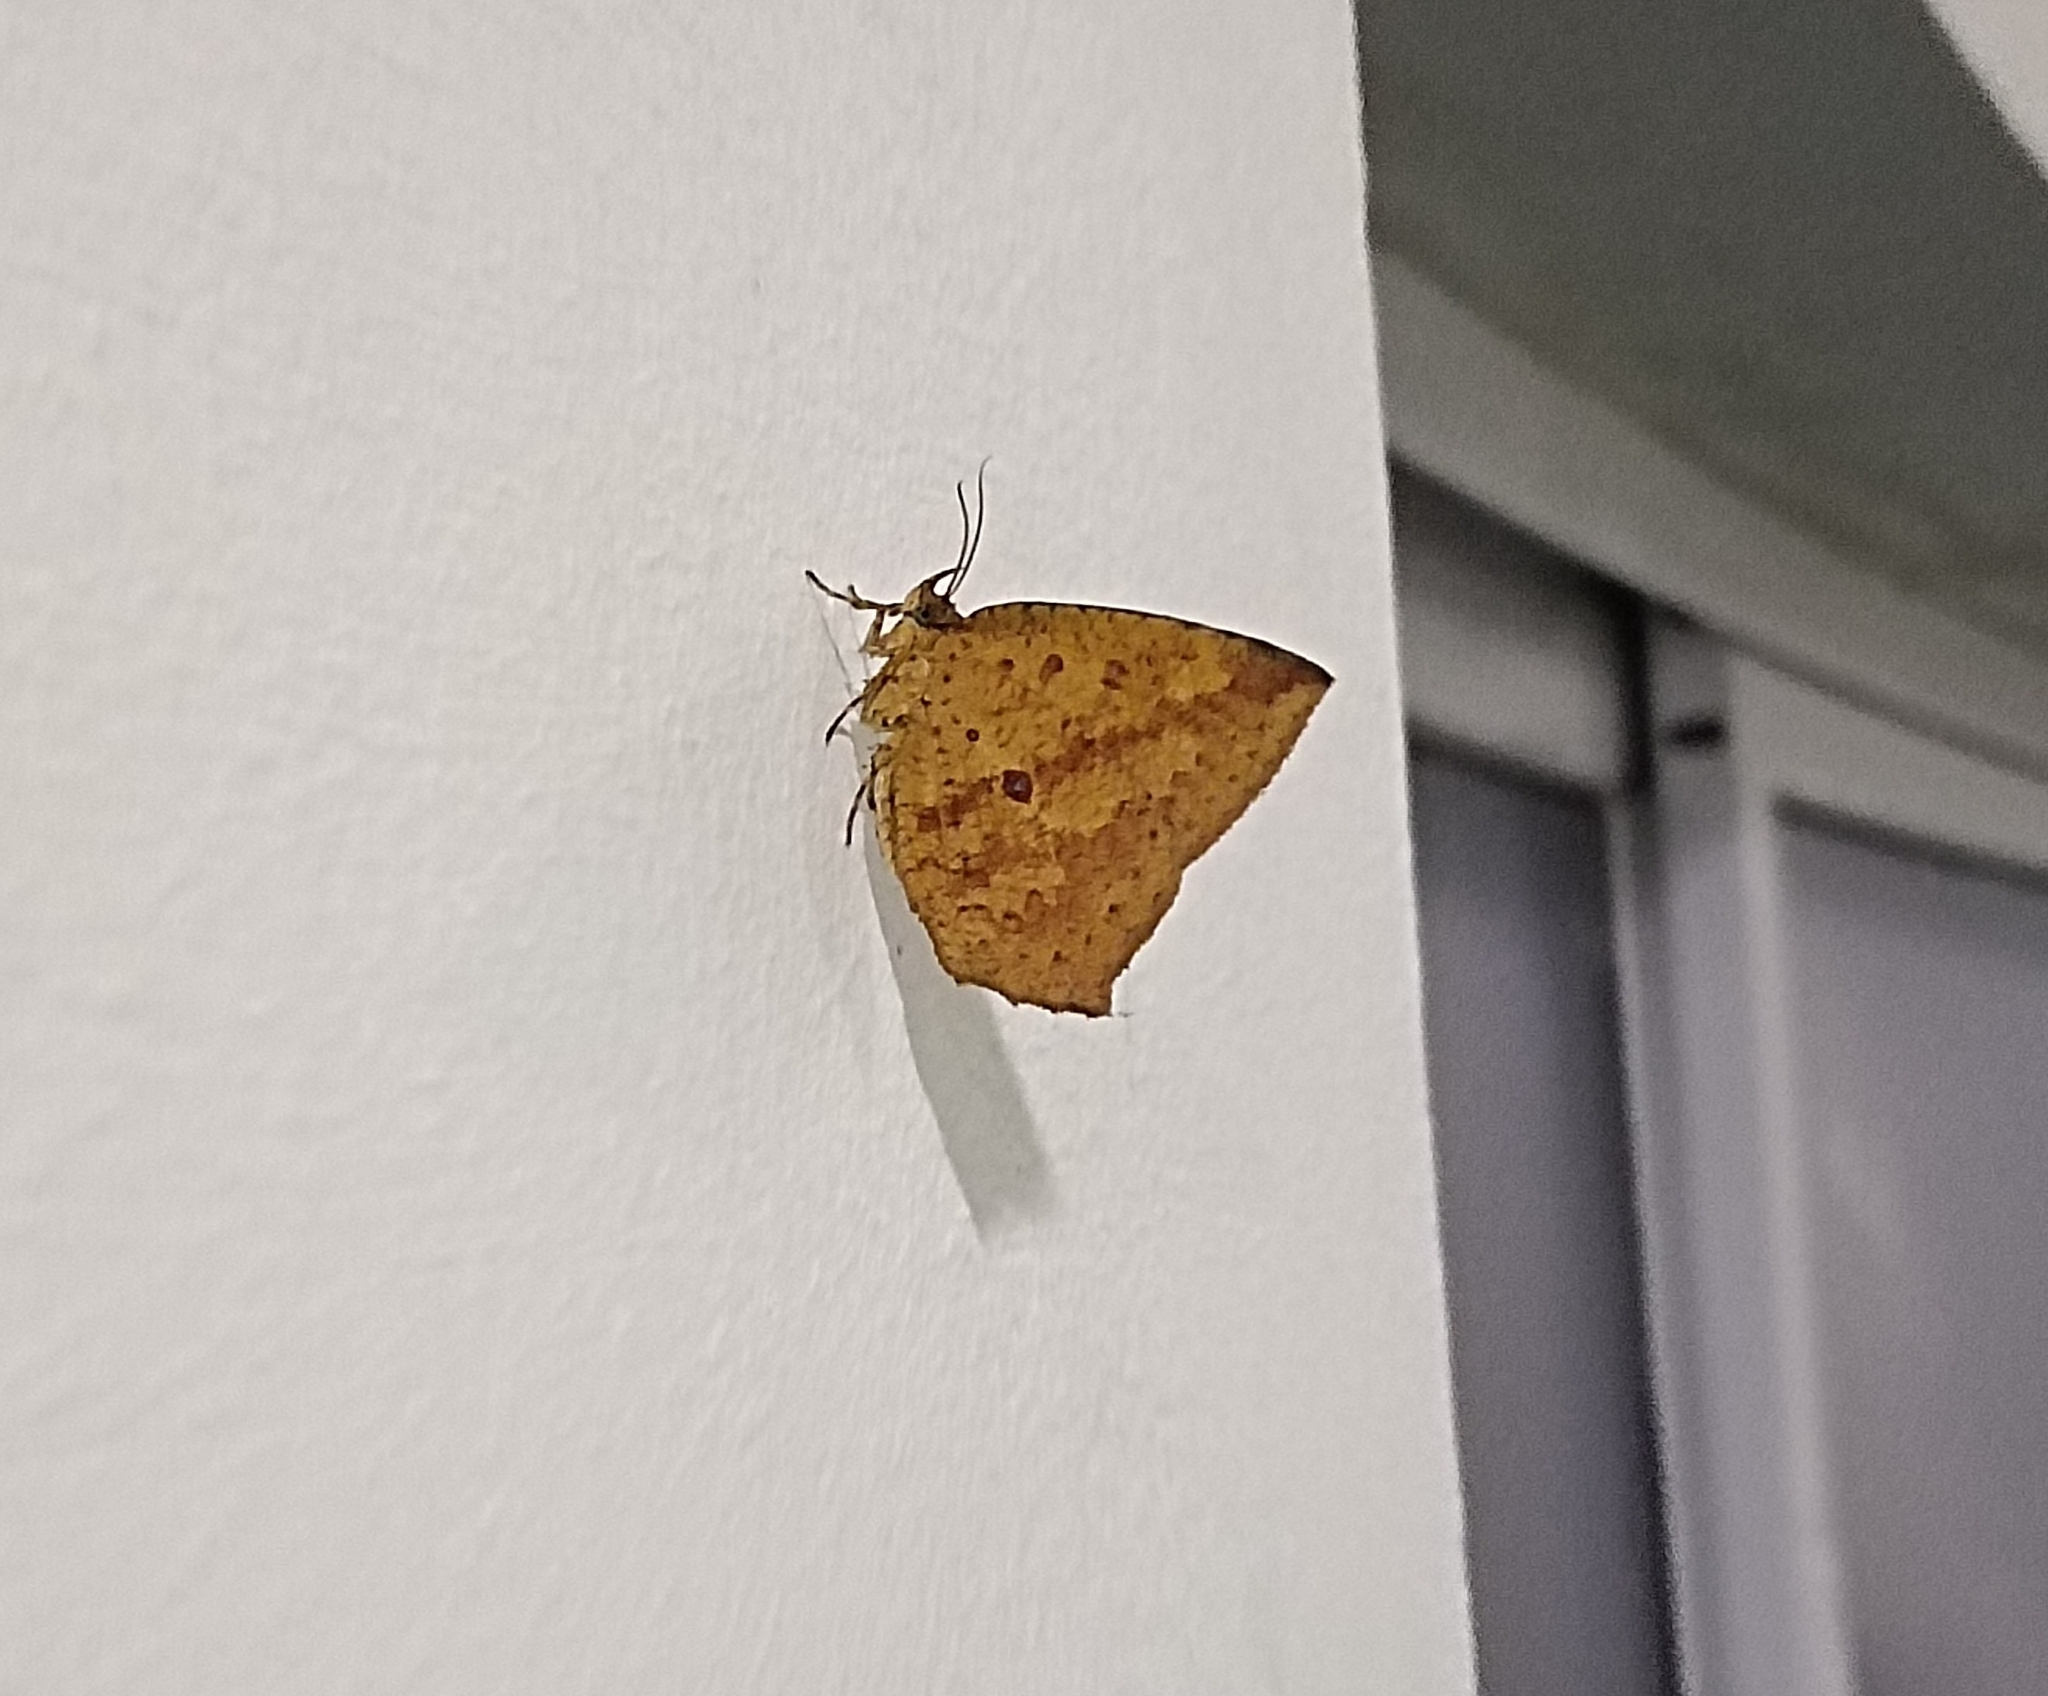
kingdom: Animalia
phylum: Arthropoda
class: Insecta
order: Lepidoptera
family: Callidulidae
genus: Tetragonus
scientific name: Tetragonus catamitus
